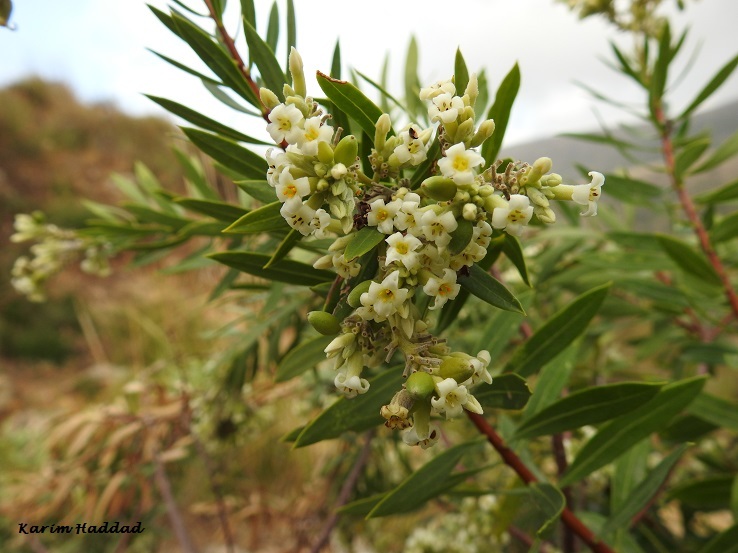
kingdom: Plantae
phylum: Tracheophyta
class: Magnoliopsida
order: Malvales
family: Thymelaeaceae
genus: Daphne
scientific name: Daphne gnidium
